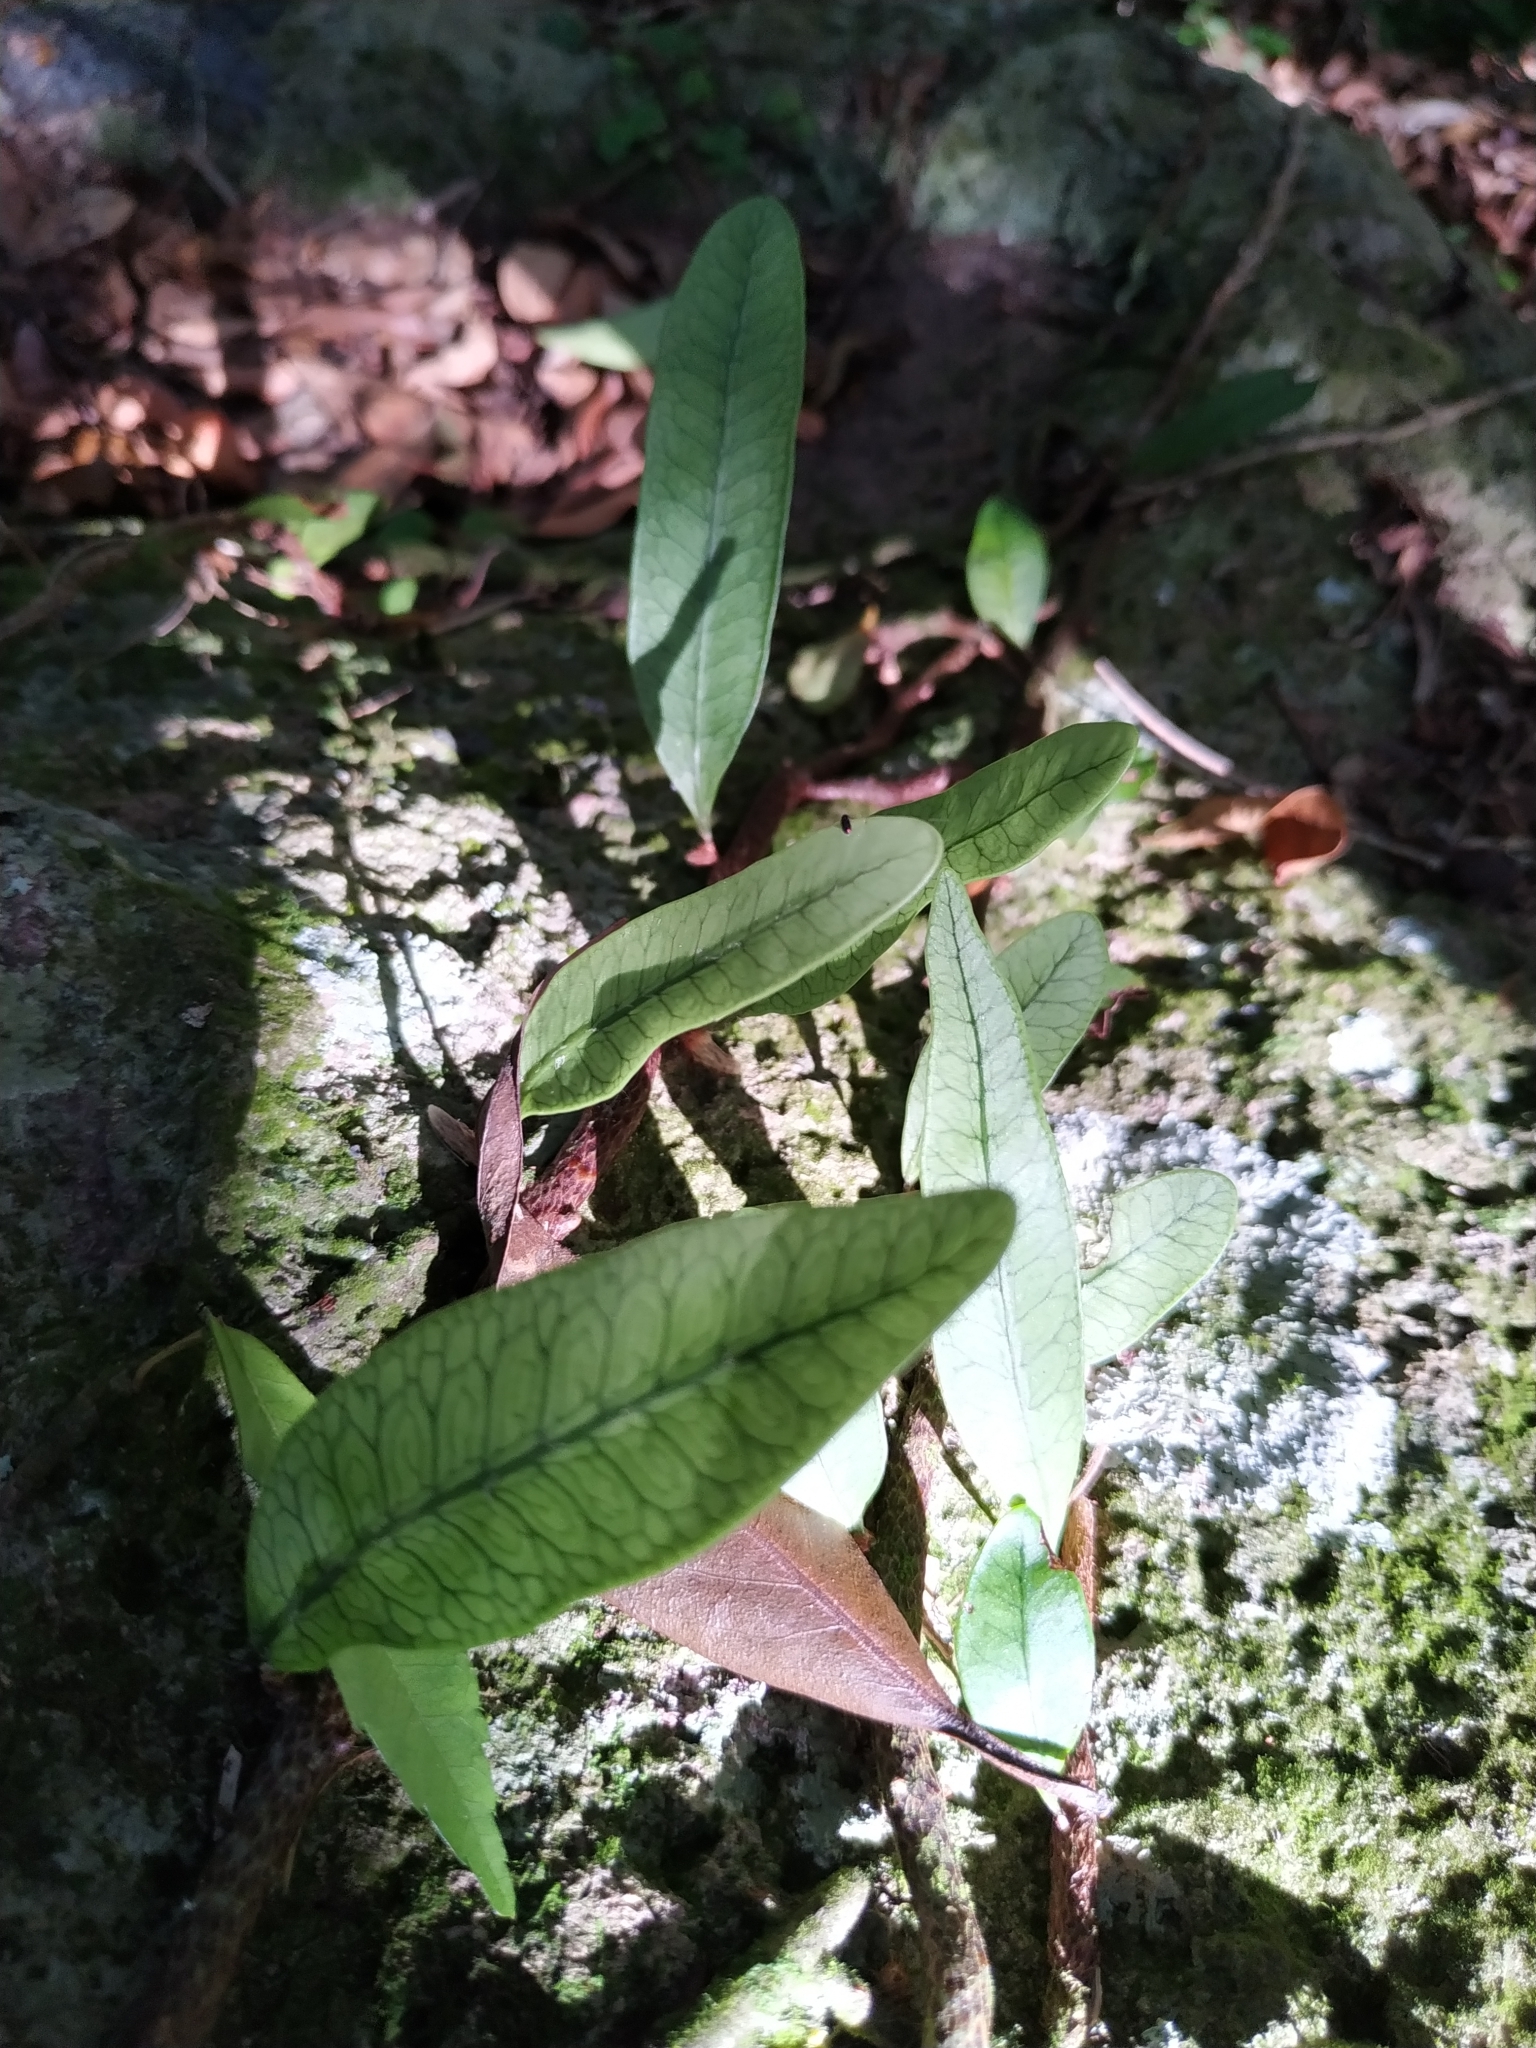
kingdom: Plantae
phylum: Tracheophyta
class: Polypodiopsida
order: Polypodiales
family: Polypodiaceae
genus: Microgramma
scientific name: Microgramma squamulosa
